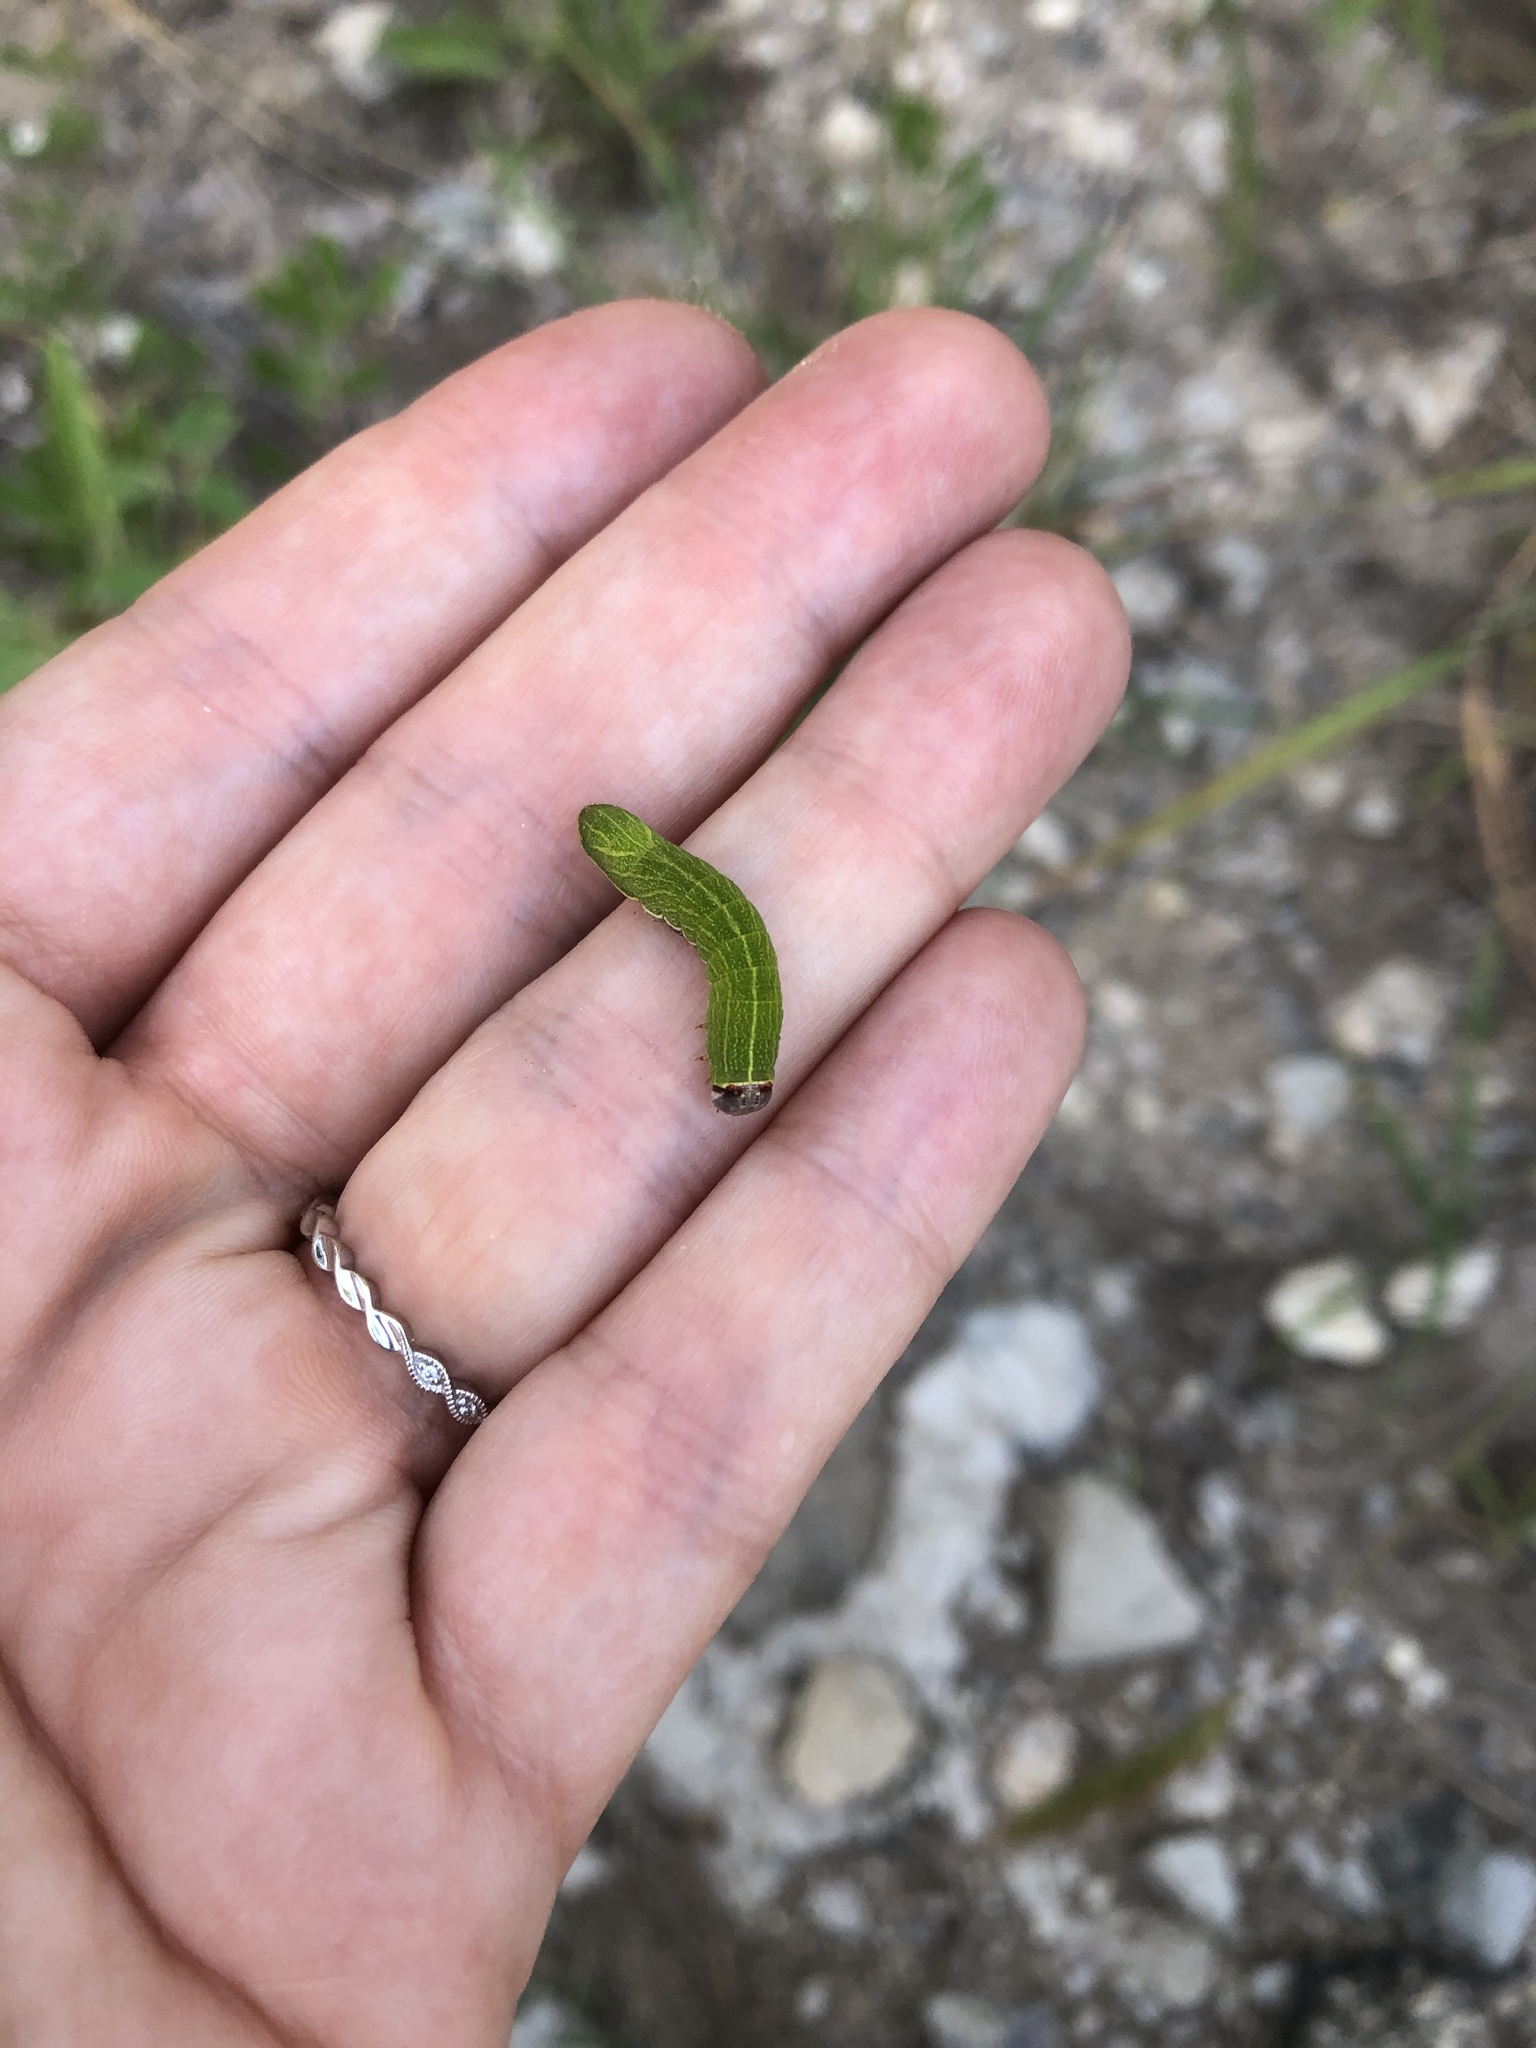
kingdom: Animalia
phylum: Arthropoda
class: Insecta
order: Lepidoptera
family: Notodontidae
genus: Litodonta
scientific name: Litodonta hydromeli
